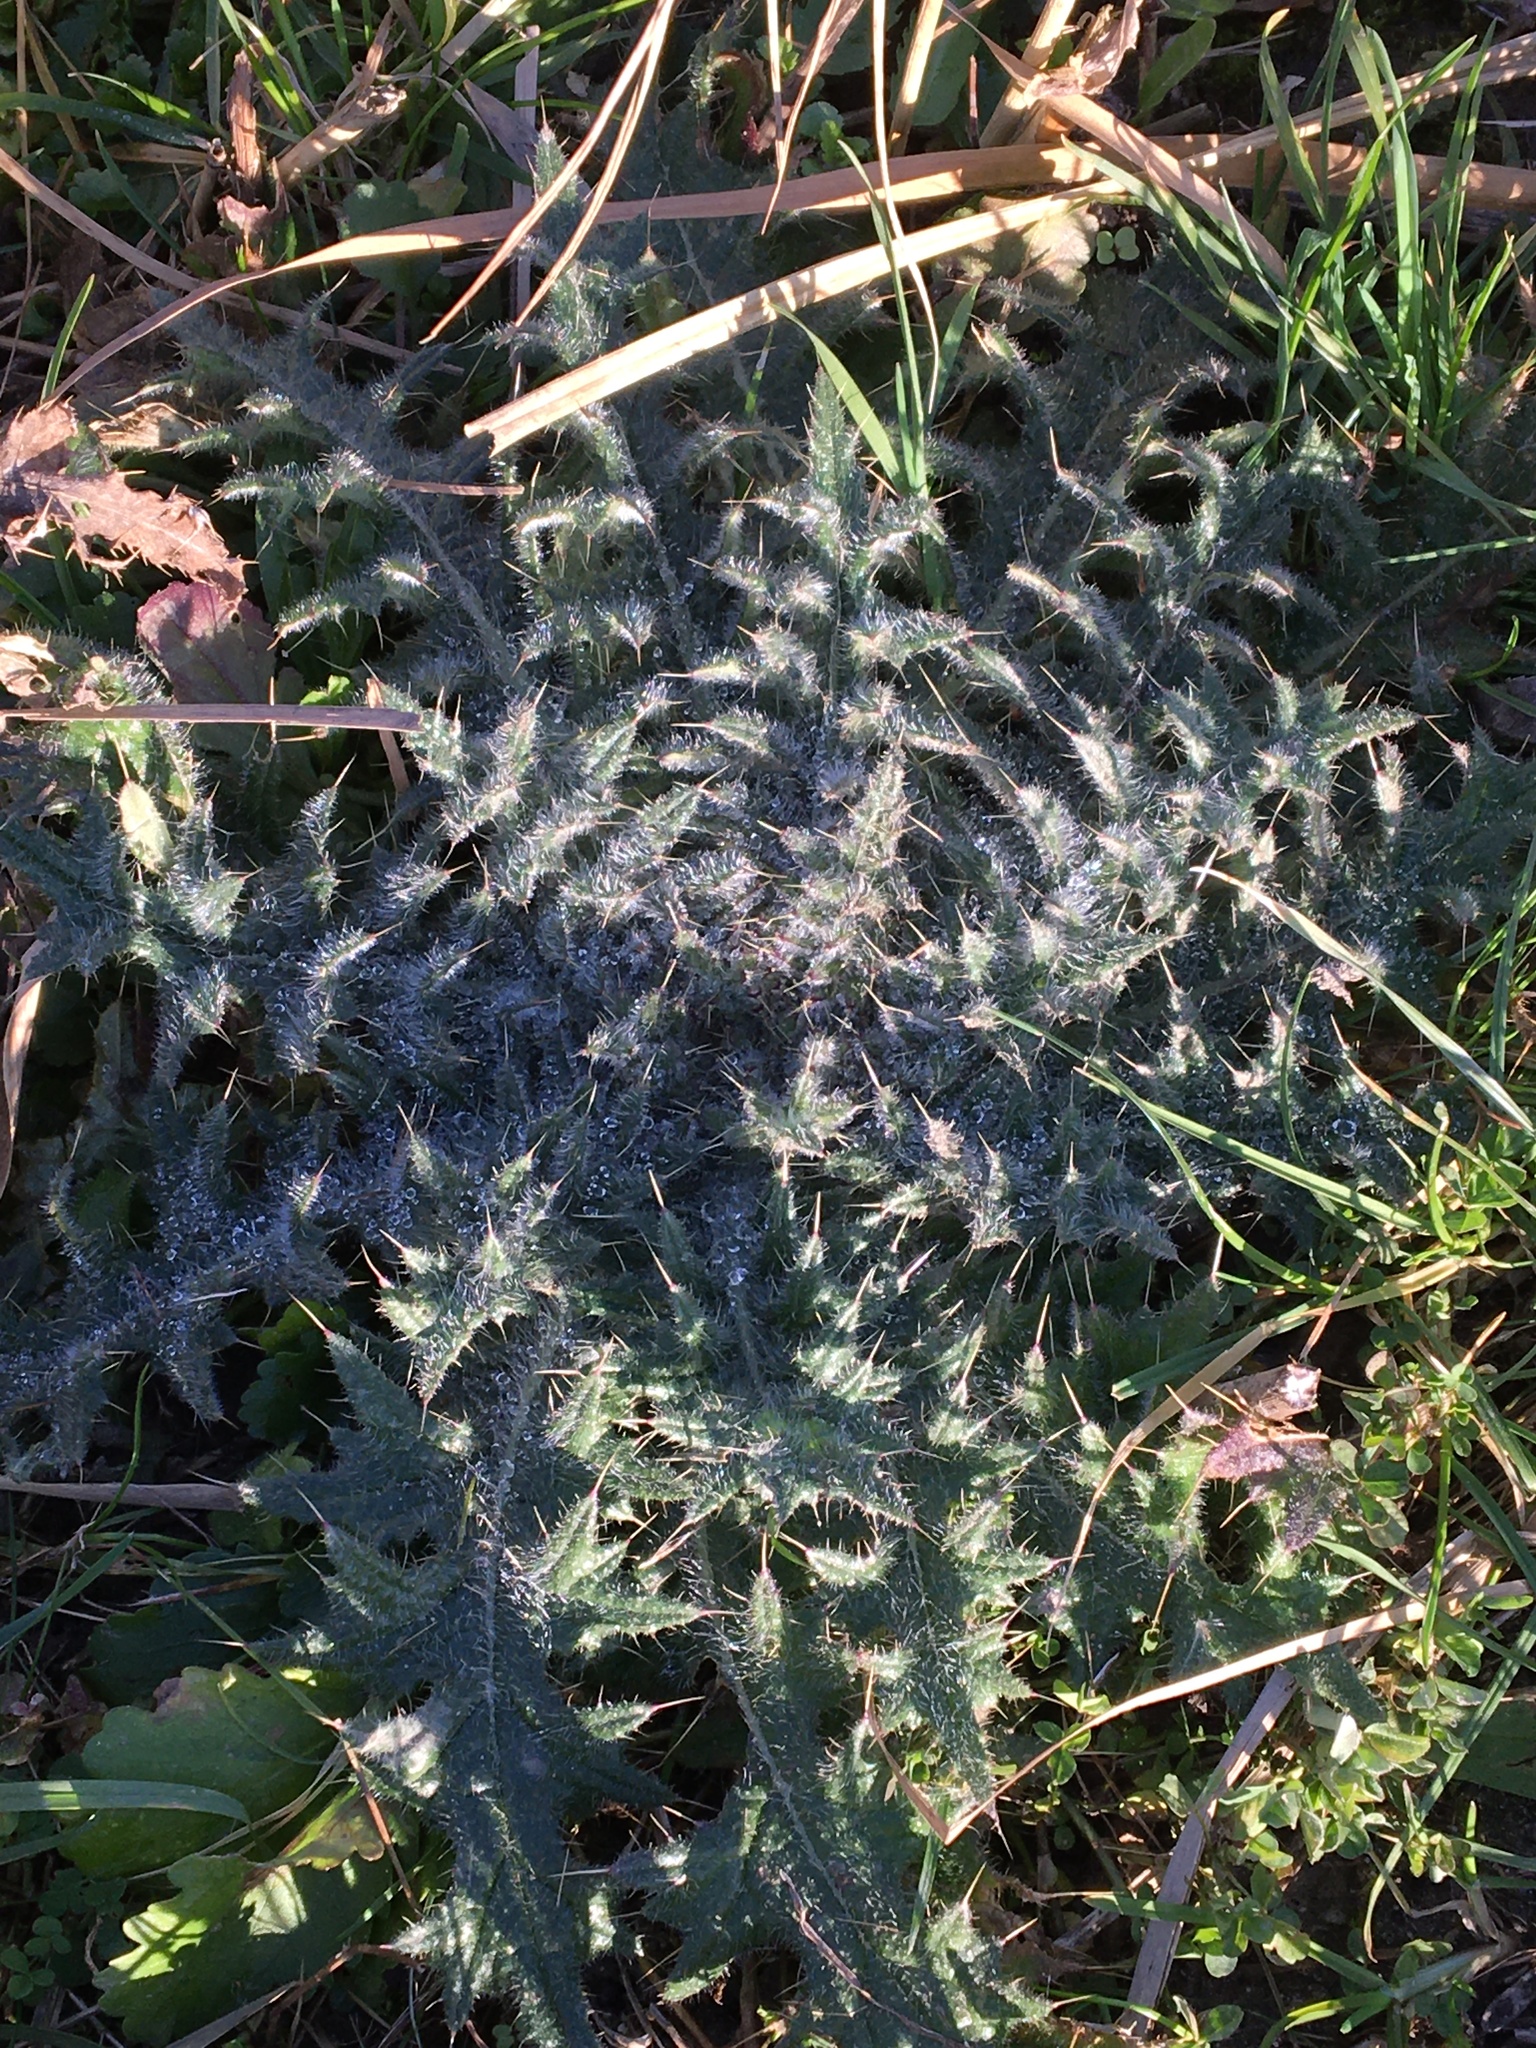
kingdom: Plantae
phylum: Tracheophyta
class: Magnoliopsida
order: Asterales
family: Asteraceae
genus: Cirsium
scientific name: Cirsium vulgare
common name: Bull thistle
